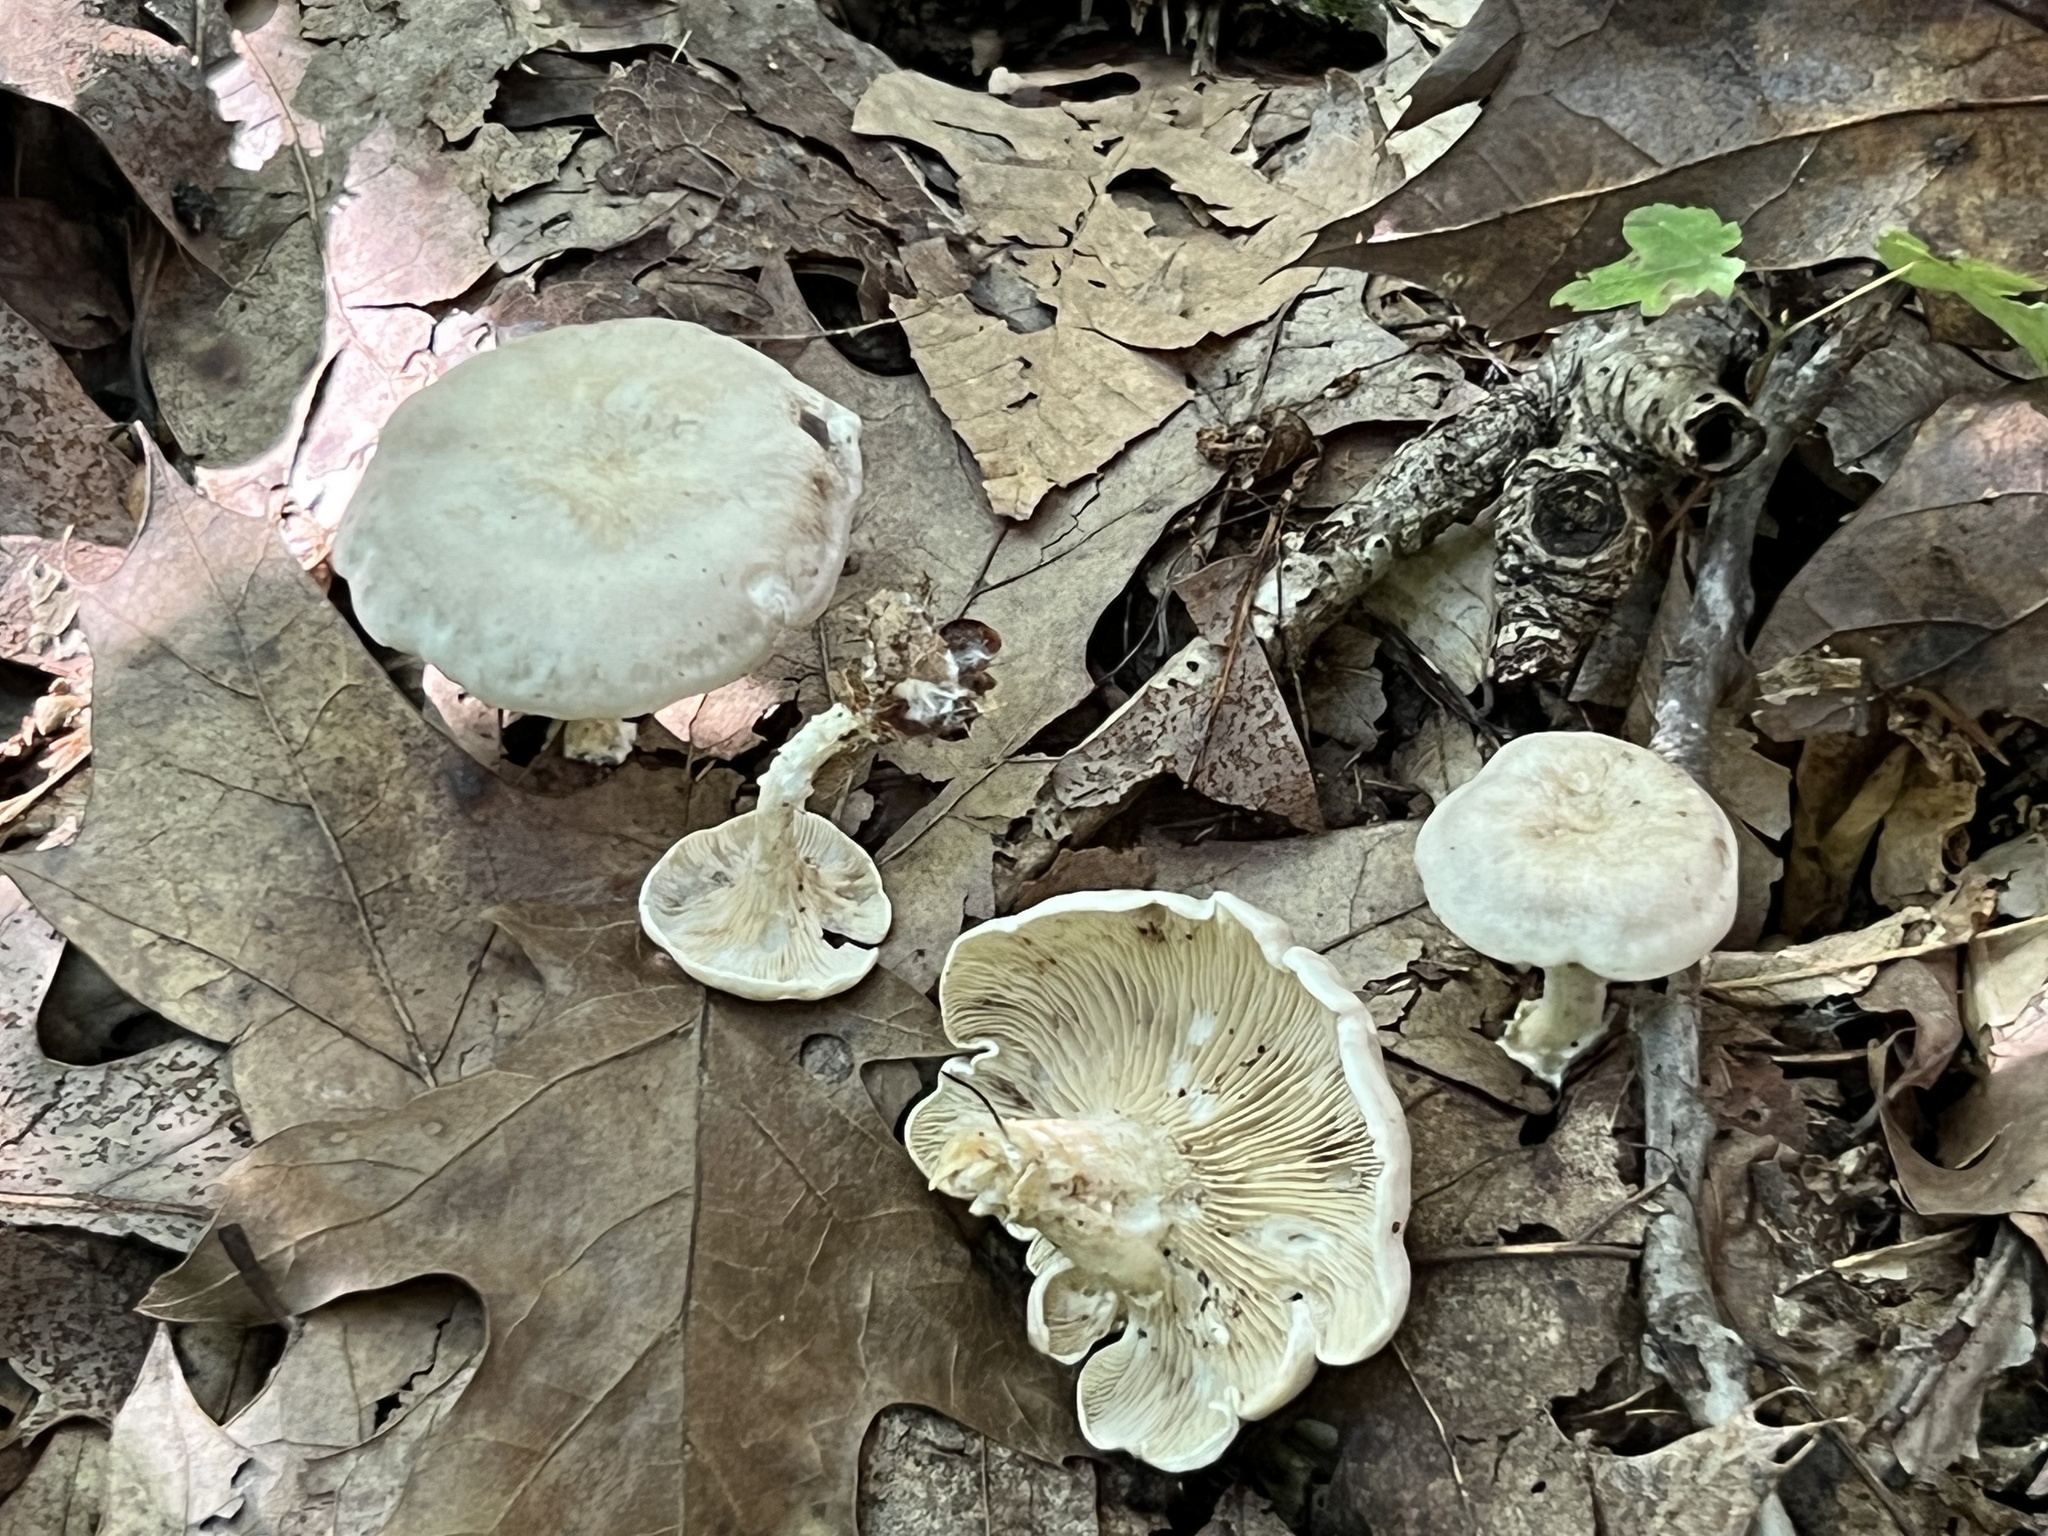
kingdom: Fungi
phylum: Basidiomycota
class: Agaricomycetes
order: Agaricales
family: Tricholomataceae
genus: Lulesia
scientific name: Lulesia
